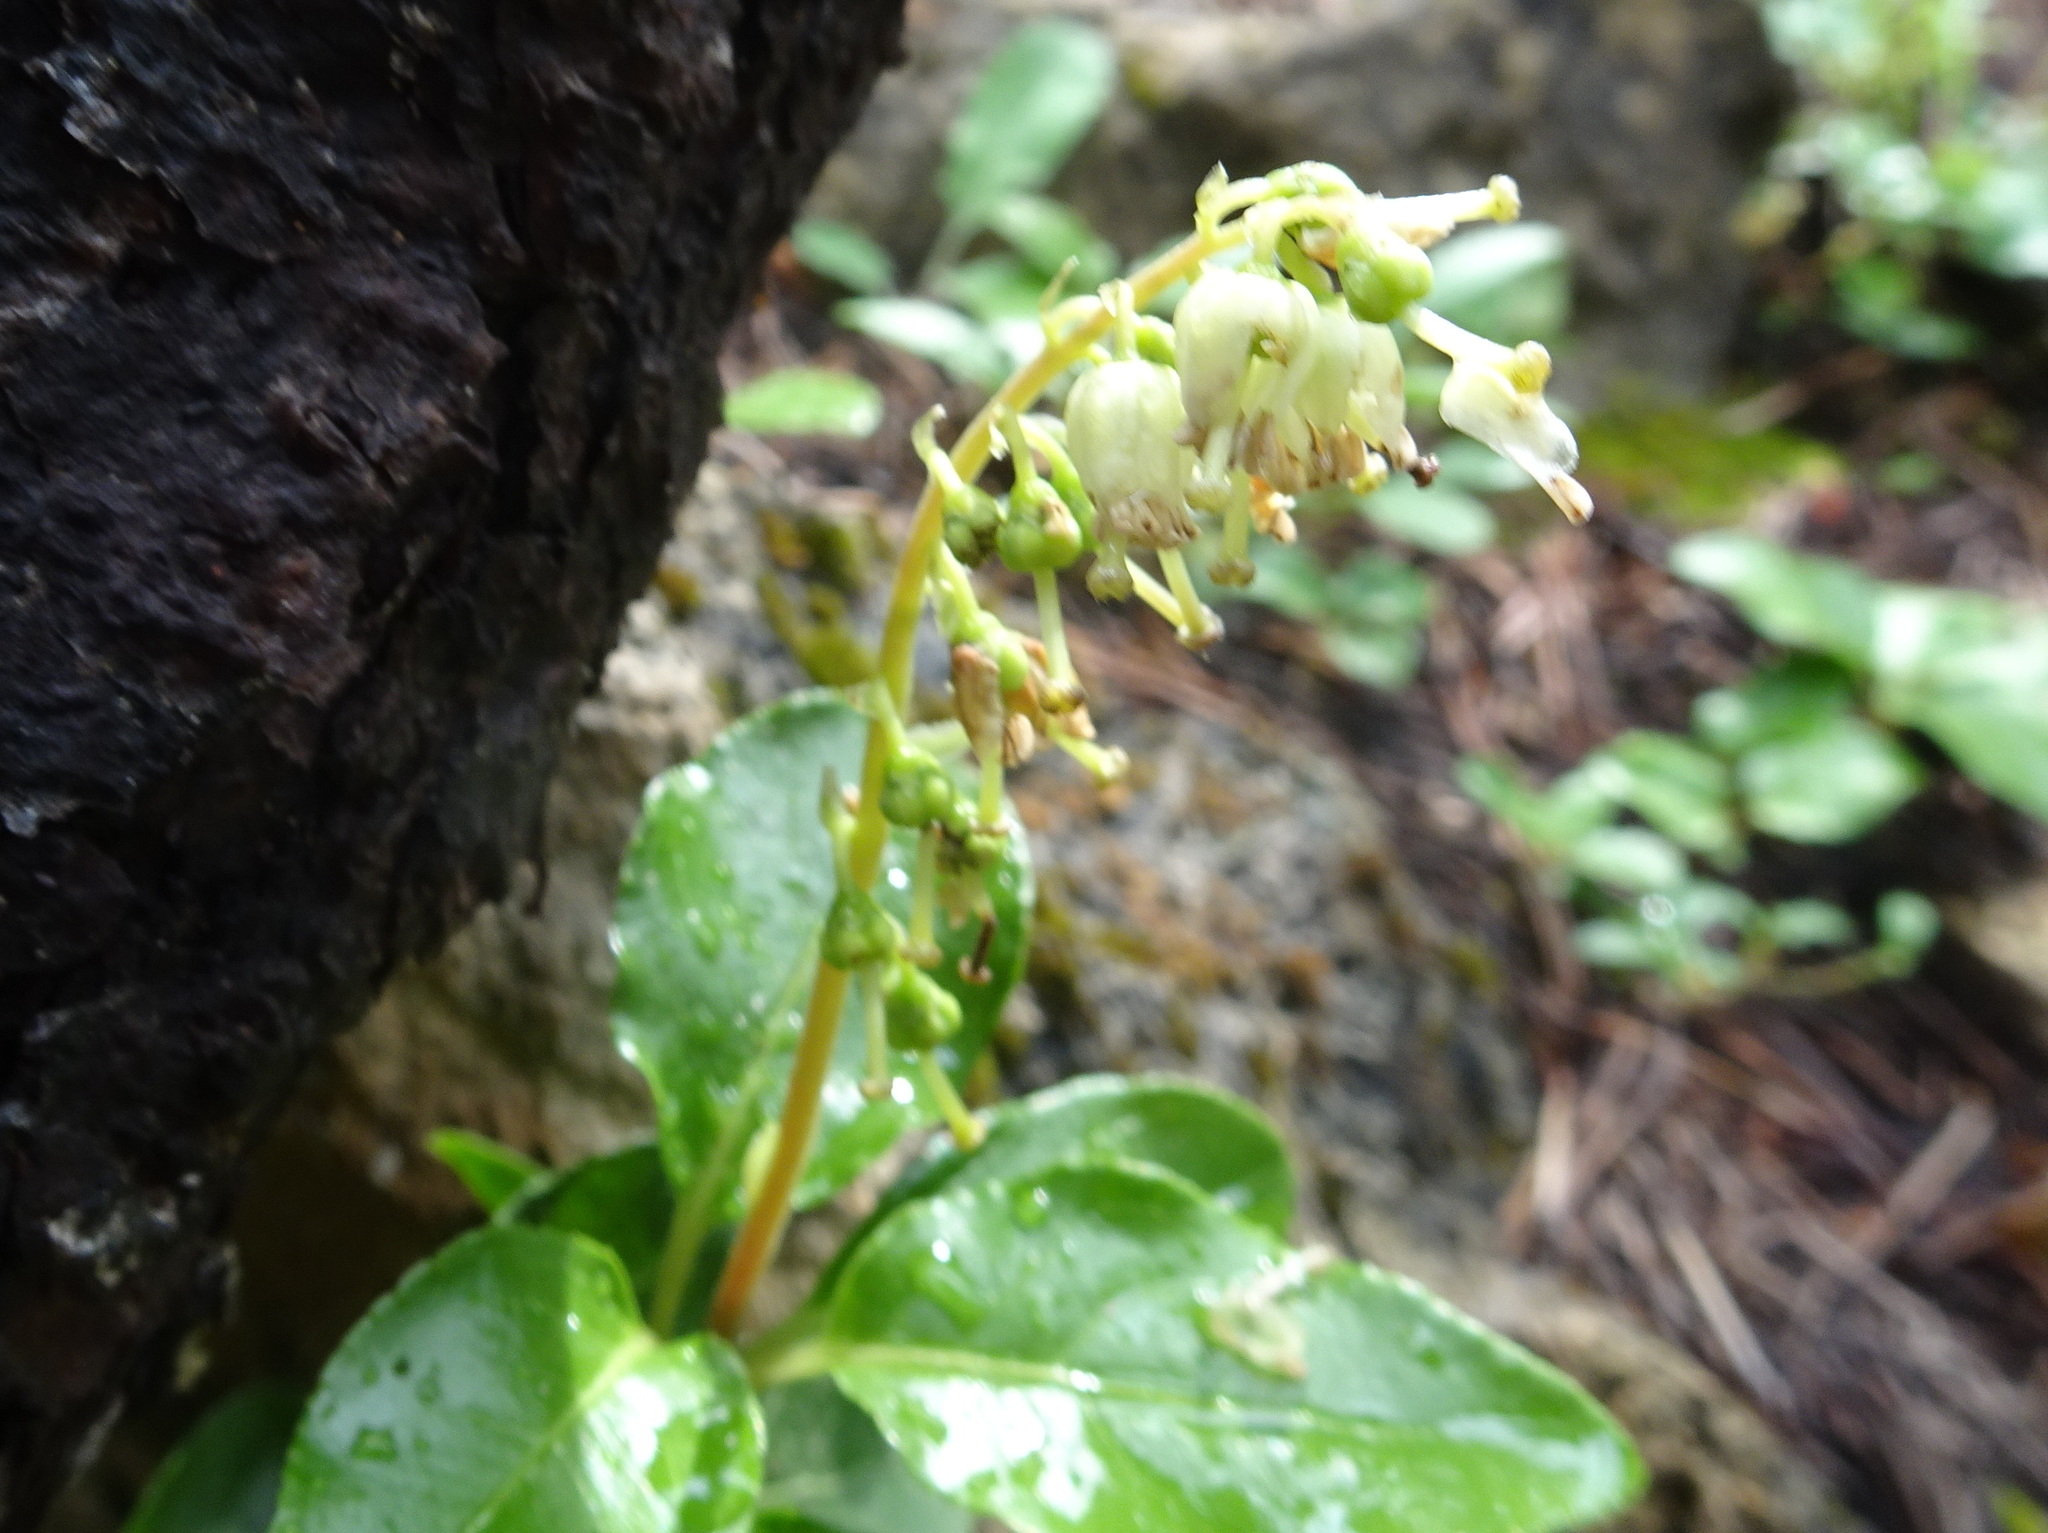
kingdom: Plantae
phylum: Tracheophyta
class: Magnoliopsida
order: Ericales
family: Ericaceae
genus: Orthilia
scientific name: Orthilia secunda
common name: One-sided orthilia
